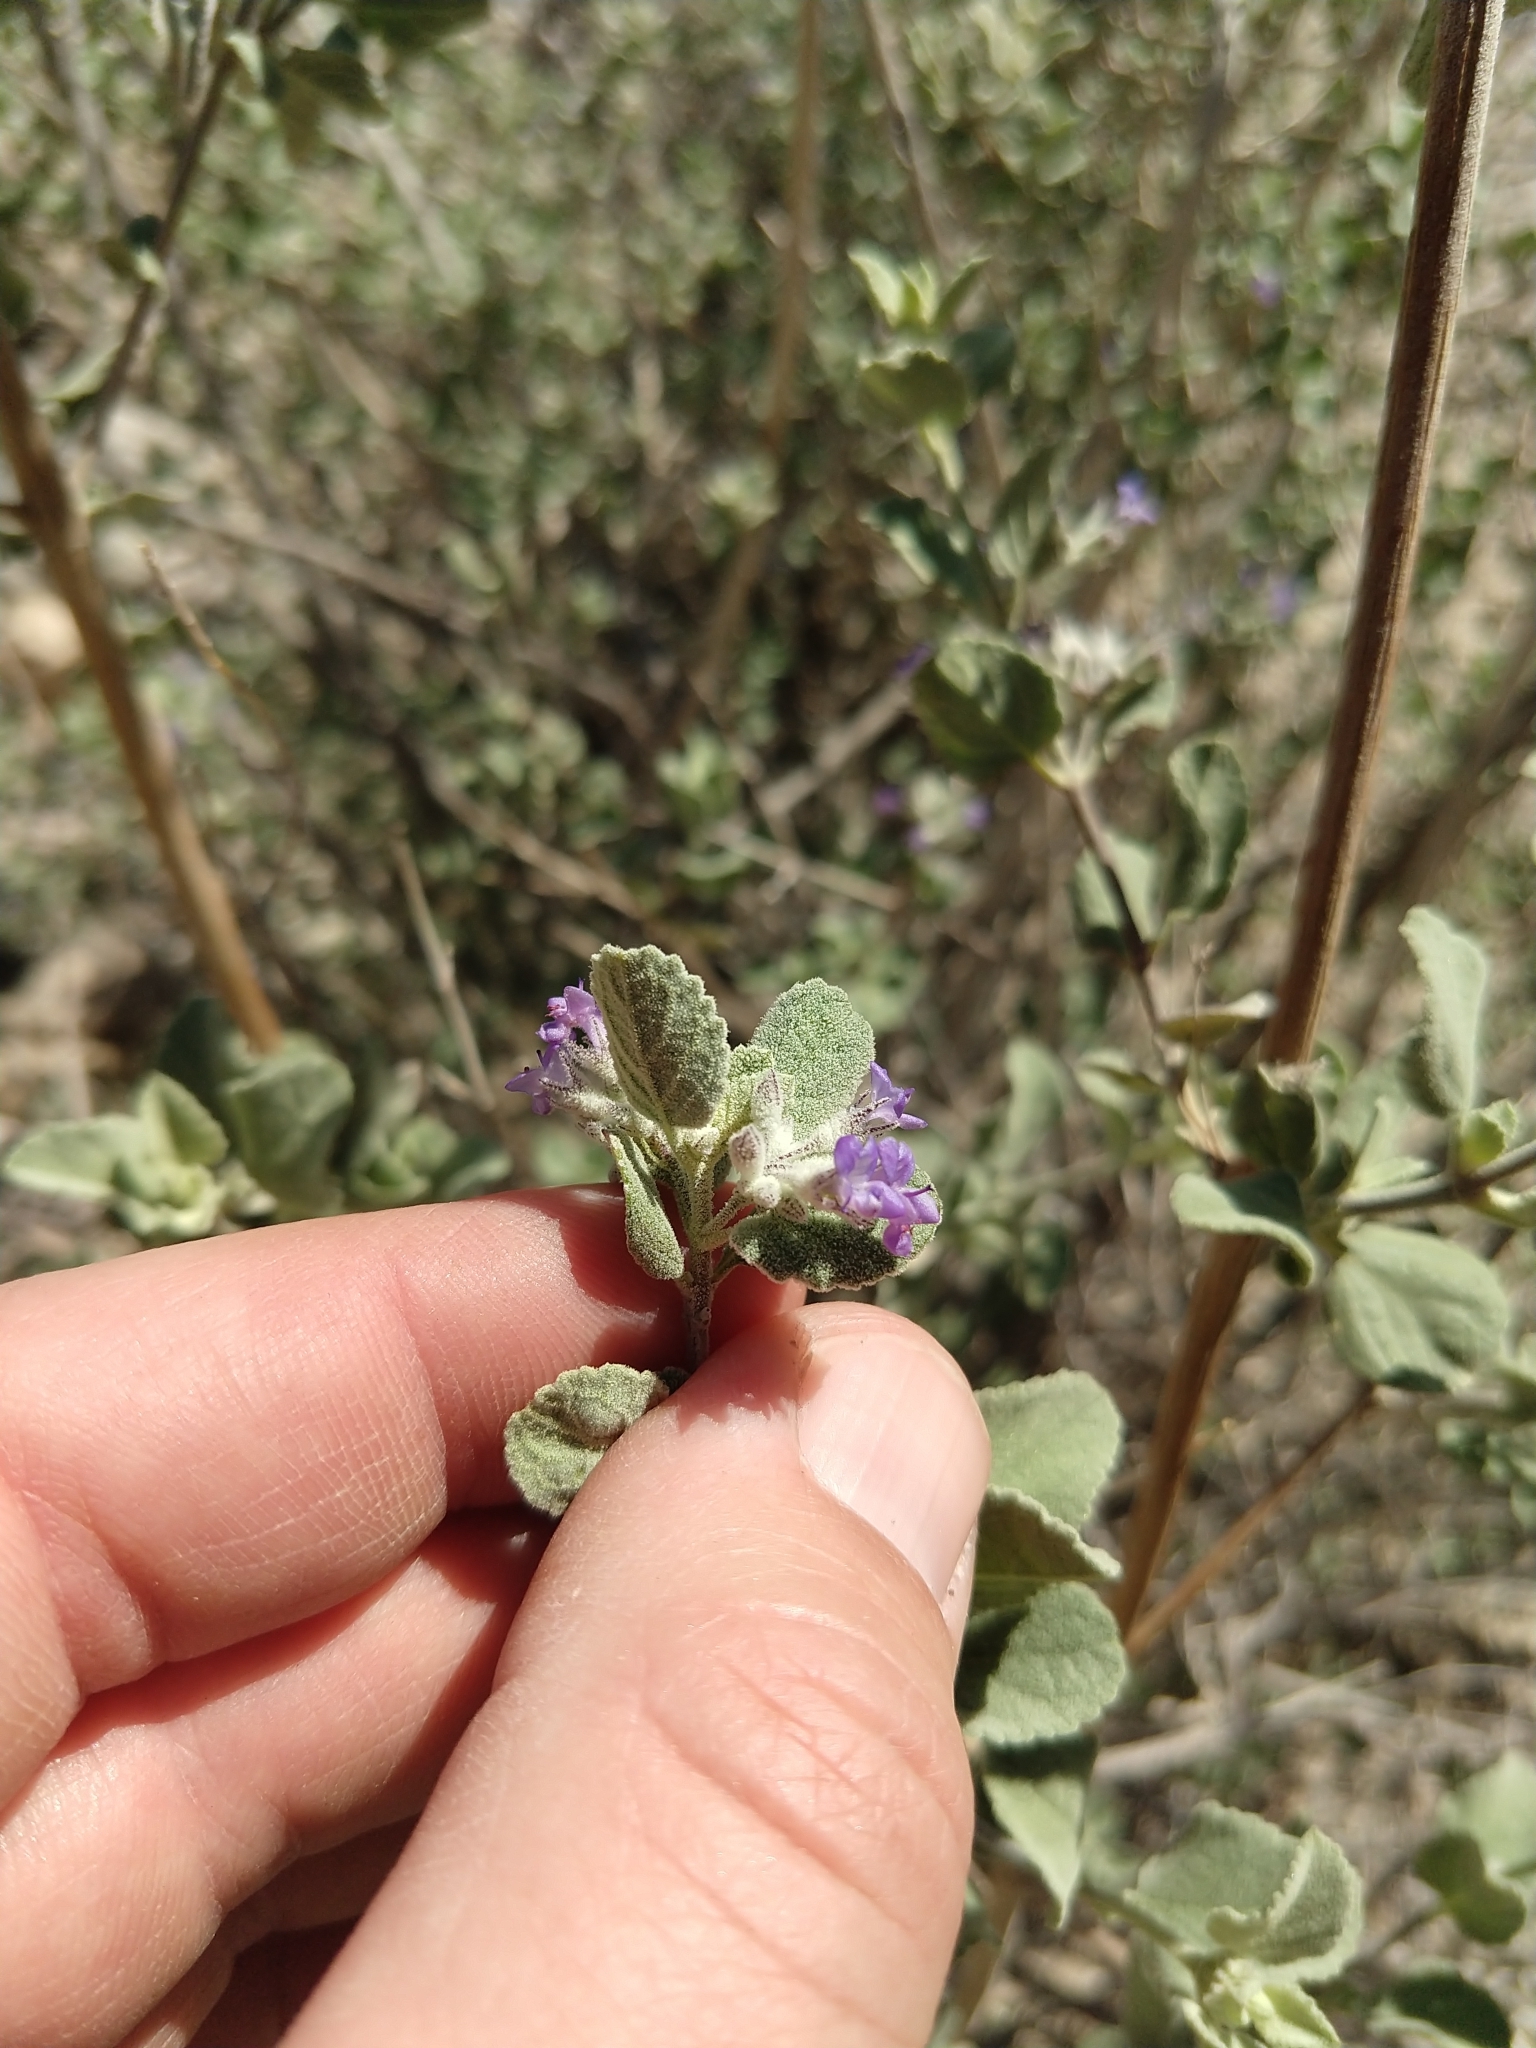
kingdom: Plantae
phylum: Tracheophyta
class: Magnoliopsida
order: Lamiales
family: Lamiaceae
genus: Condea
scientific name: Condea emoryi
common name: Chia
